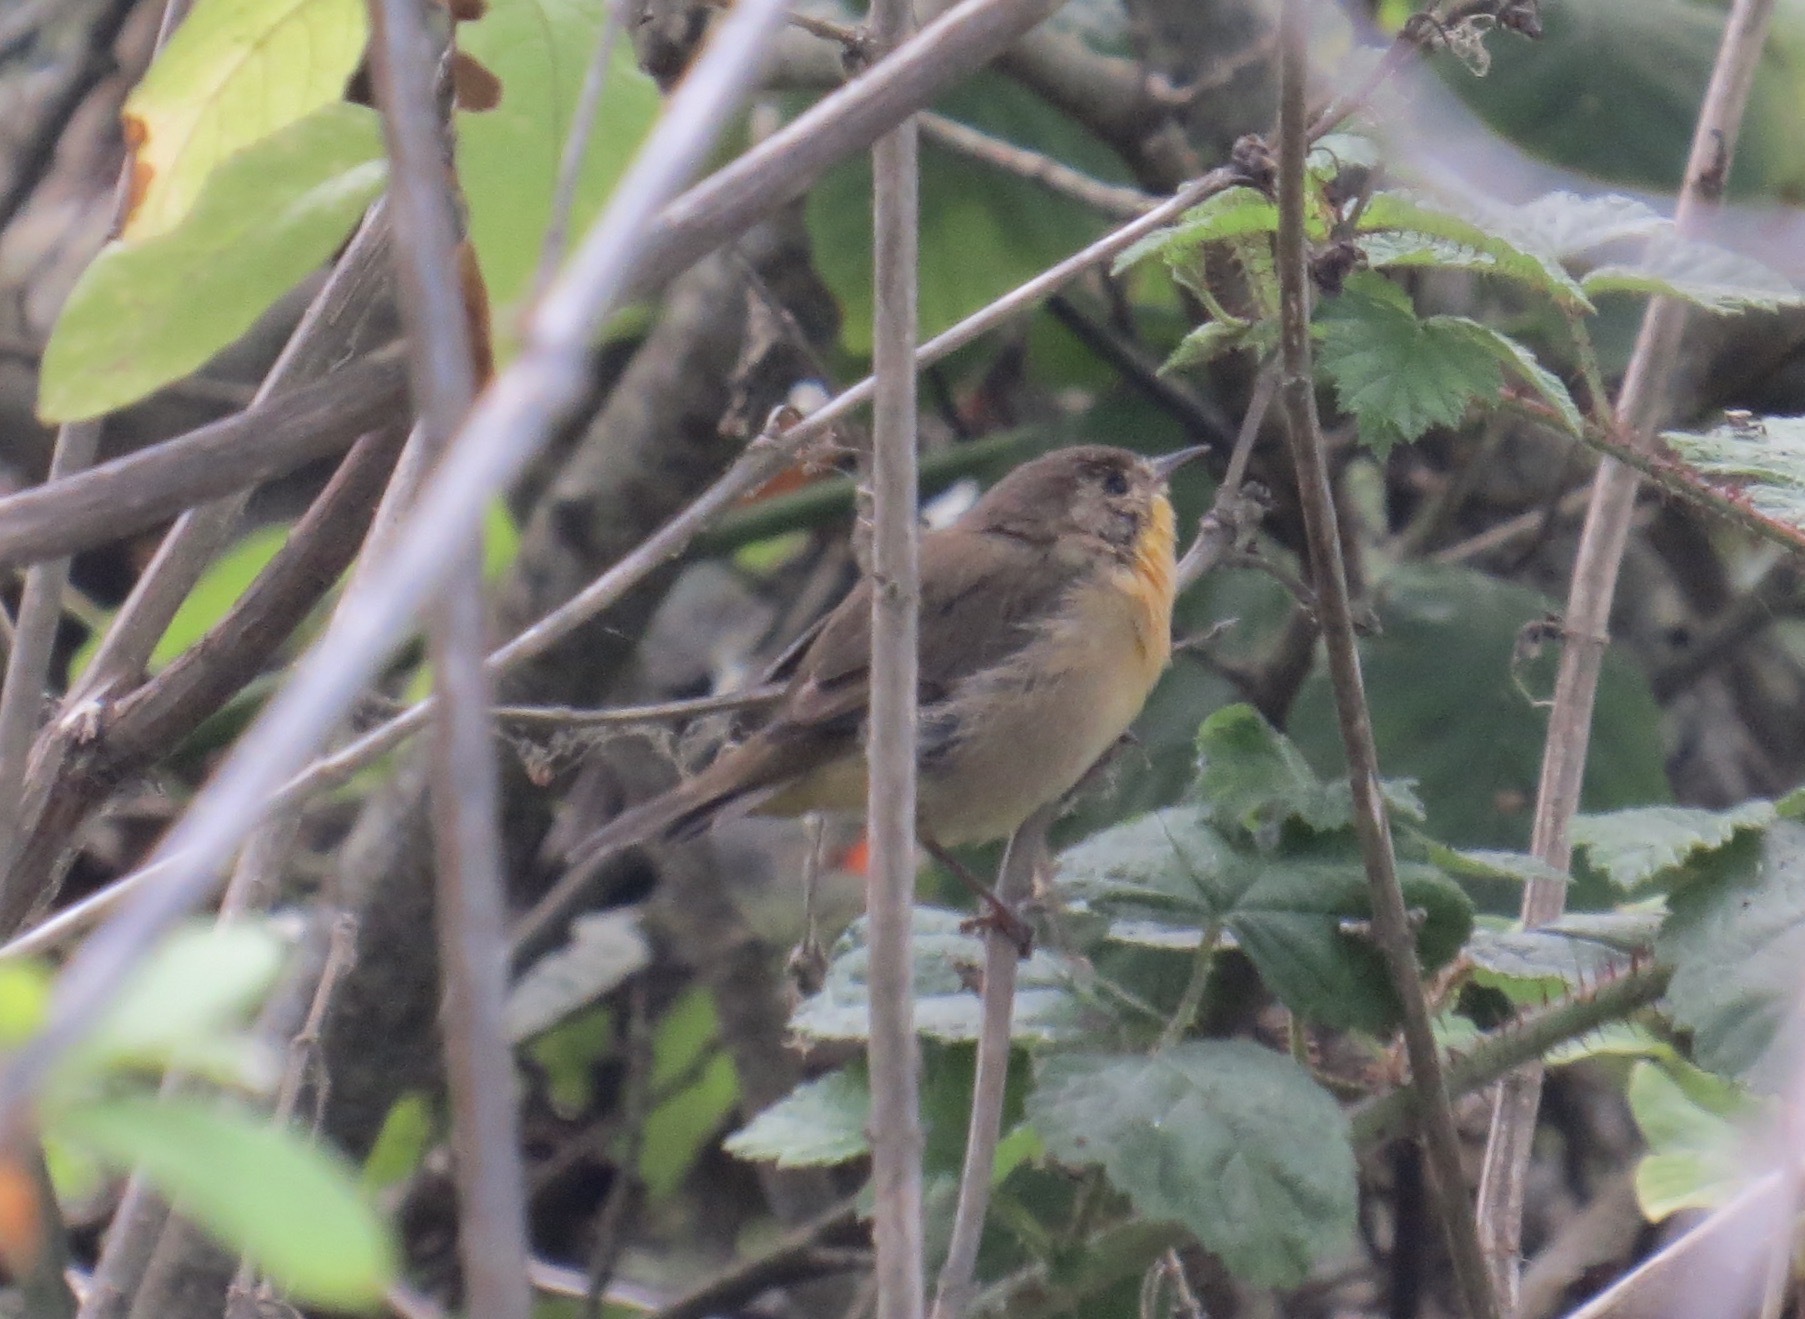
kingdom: Animalia
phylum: Chordata
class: Aves
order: Passeriformes
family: Parulidae
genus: Geothlypis
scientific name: Geothlypis trichas
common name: Common yellowthroat
